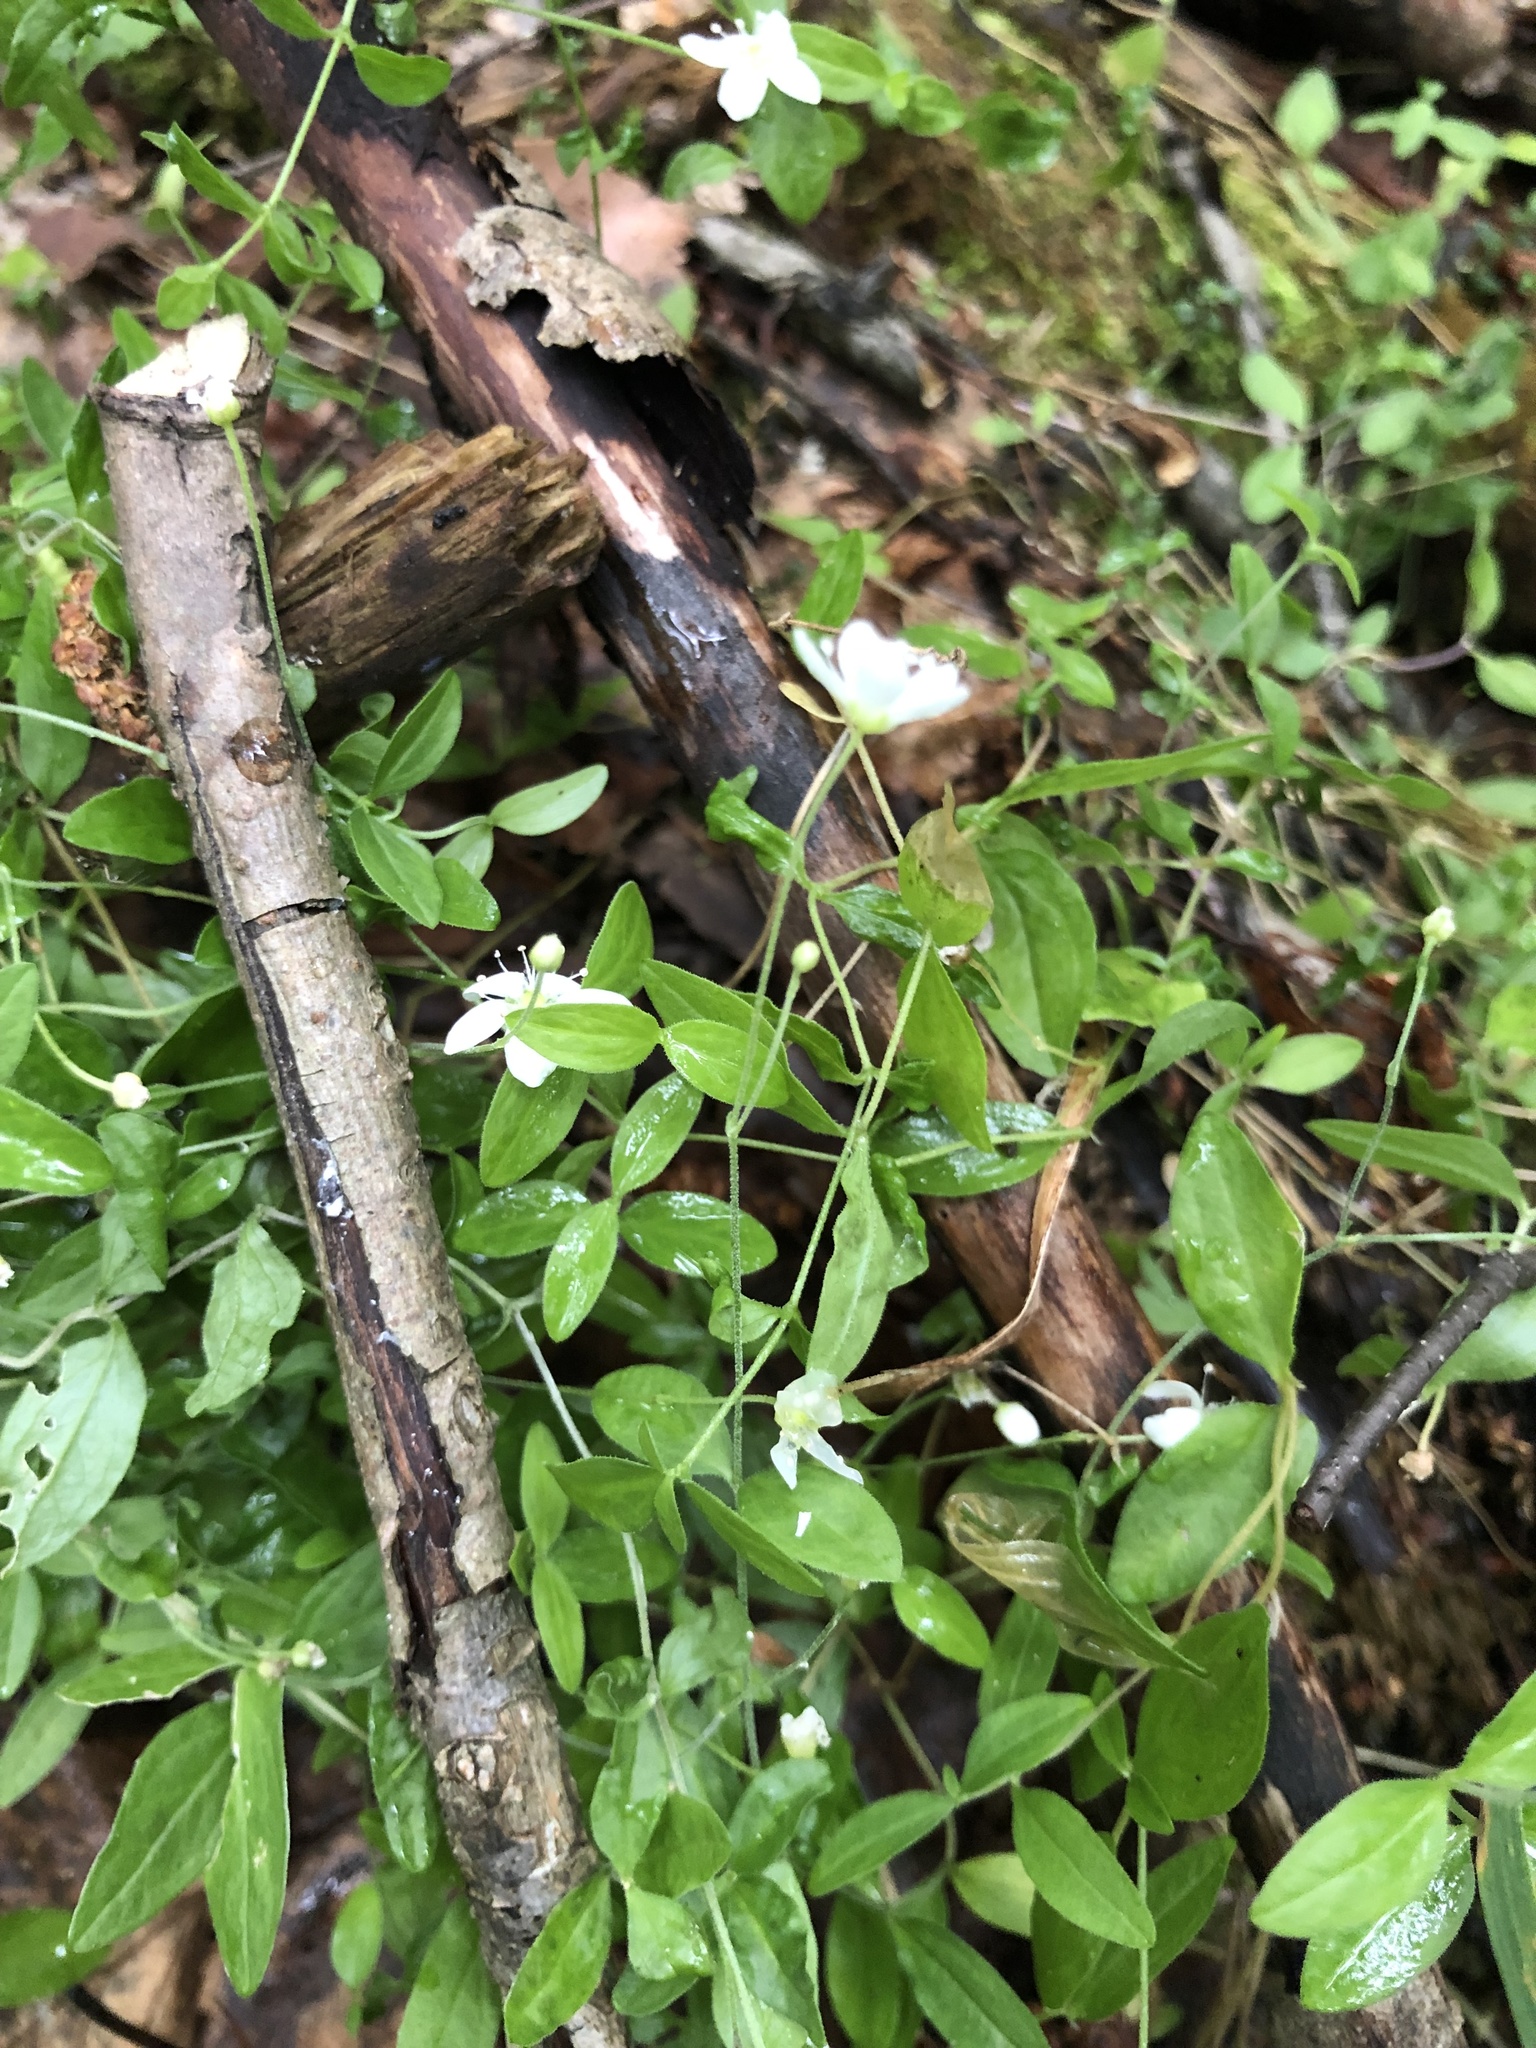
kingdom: Plantae
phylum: Tracheophyta
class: Magnoliopsida
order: Caryophyllales
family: Caryophyllaceae
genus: Moehringia
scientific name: Moehringia lateriflora
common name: Blunt-leaved sandwort
